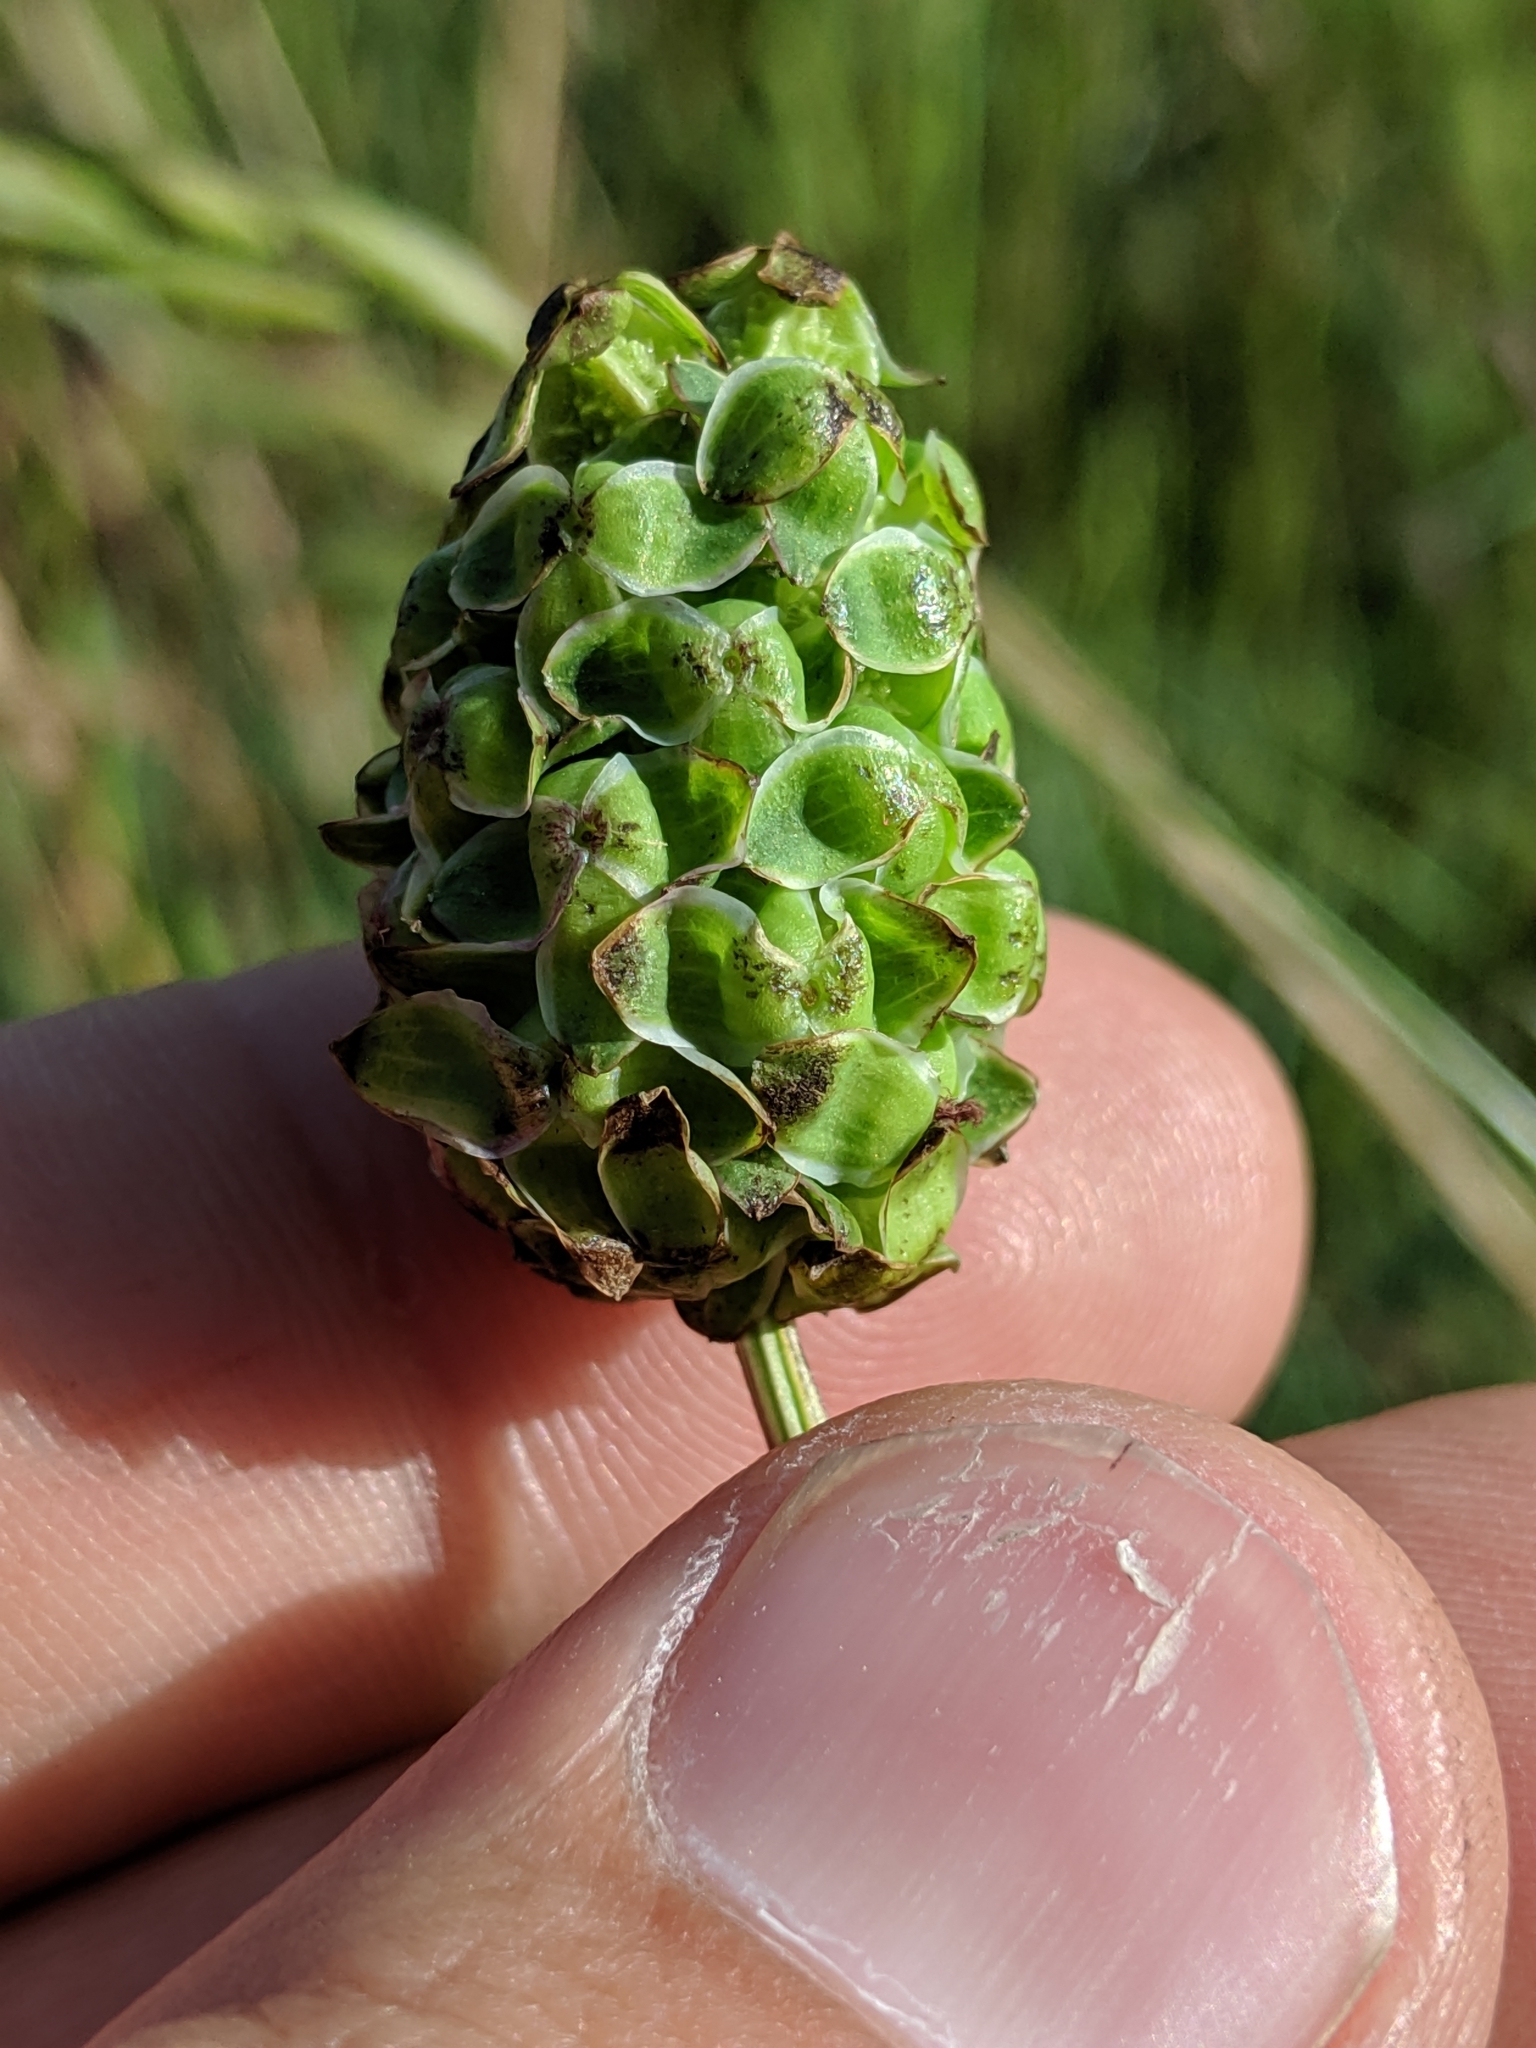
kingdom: Plantae
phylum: Tracheophyta
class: Magnoliopsida
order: Rosales
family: Rosaceae
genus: Poterium
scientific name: Poterium sanguisorba
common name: Salad burnet
